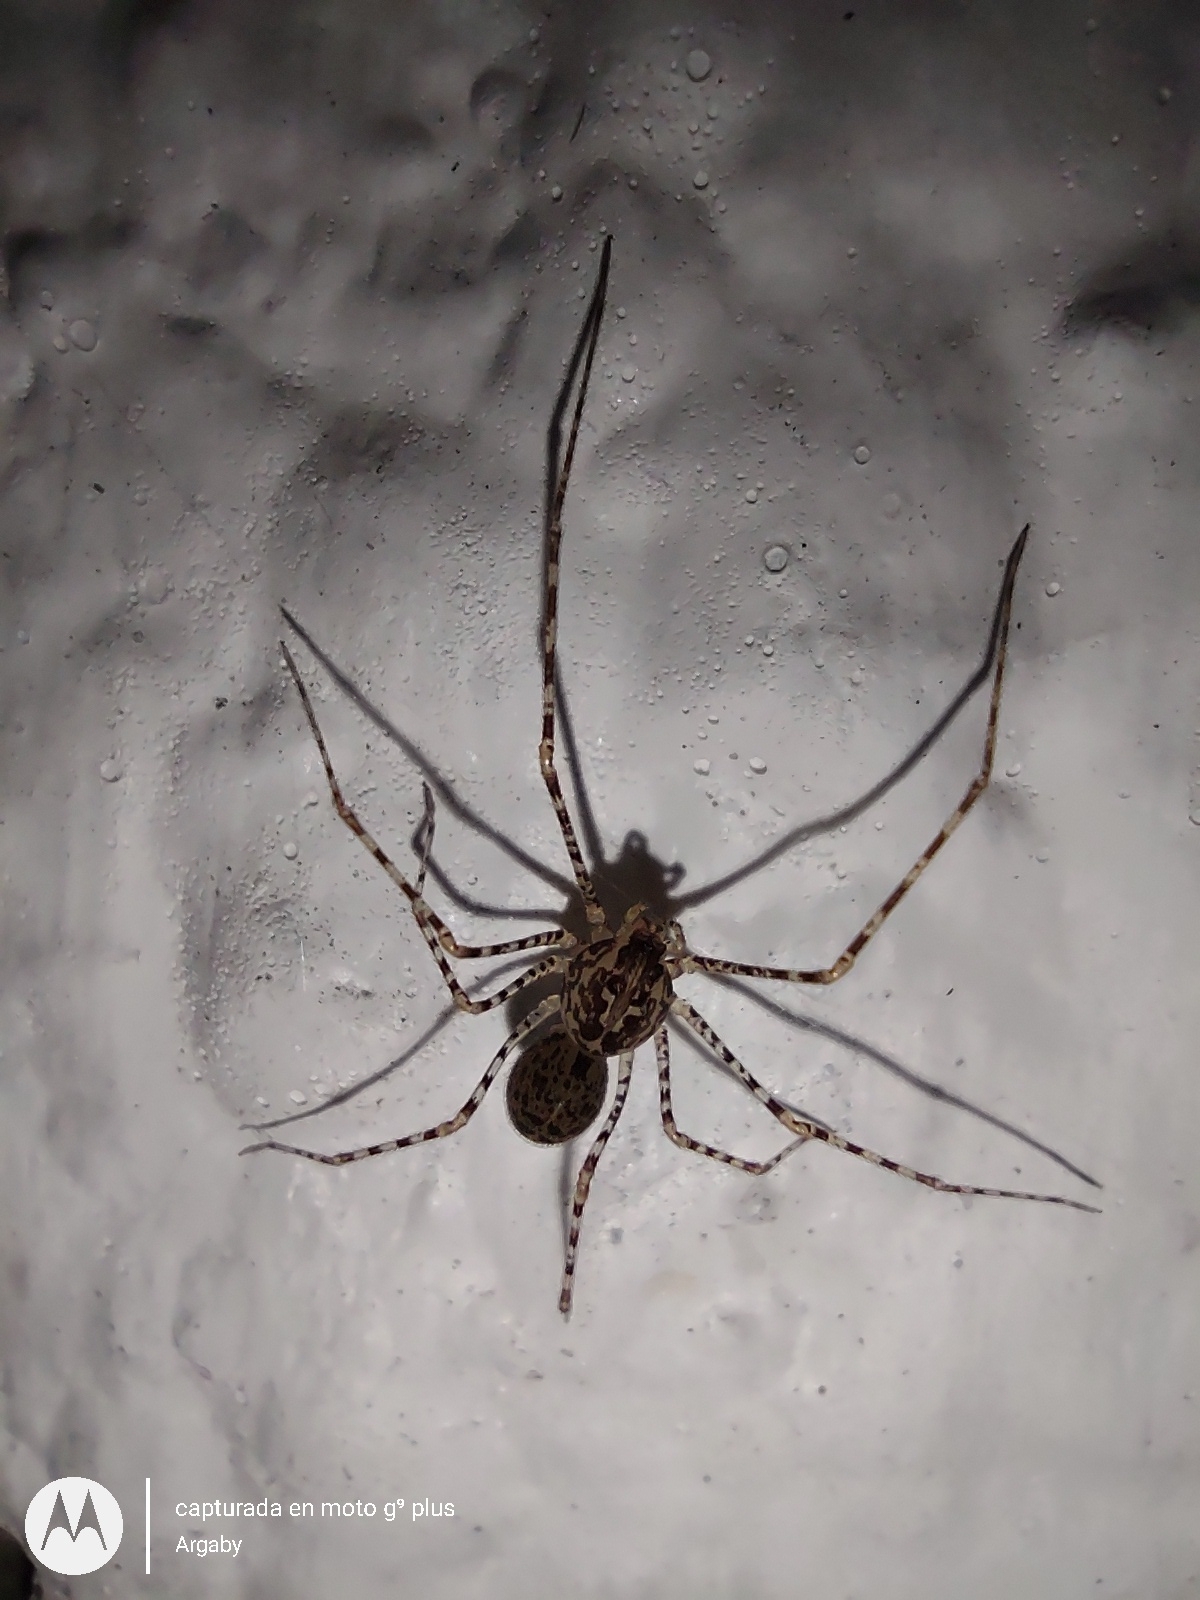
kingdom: Animalia
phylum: Arthropoda
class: Arachnida
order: Araneae
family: Scytodidae
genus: Scytodes
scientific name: Scytodes globula
